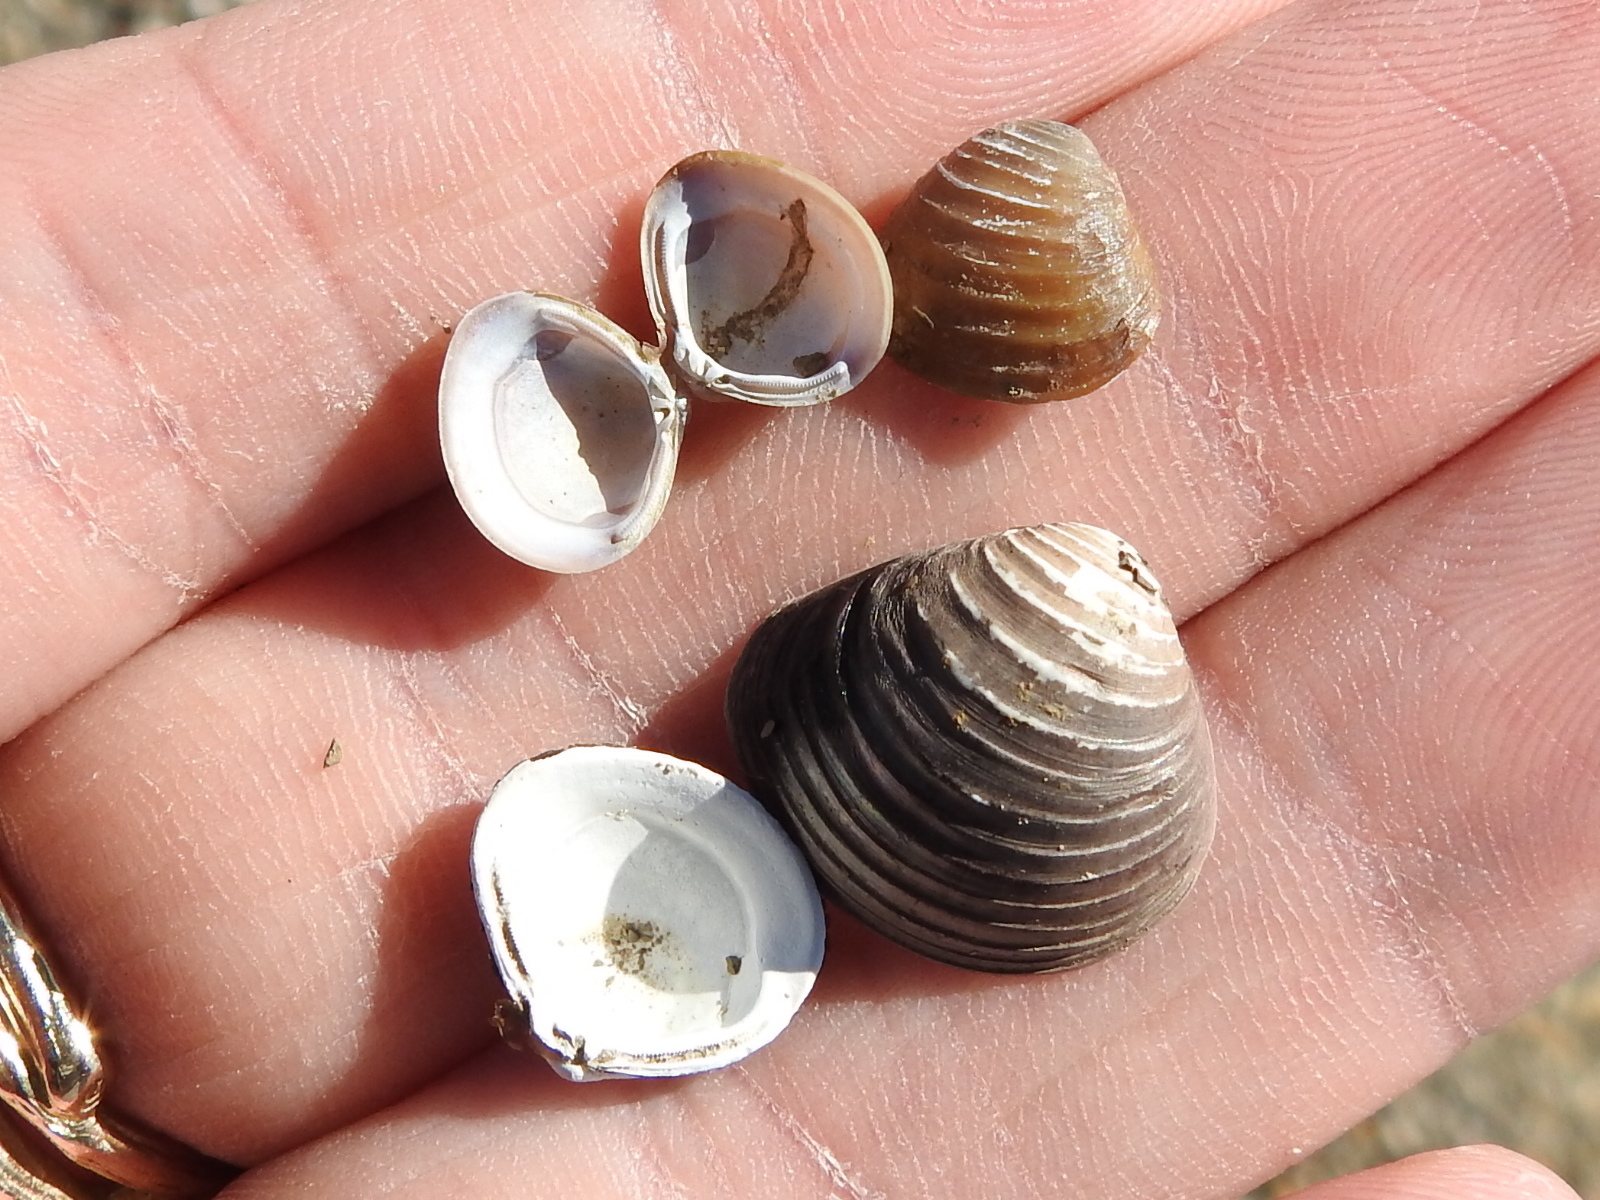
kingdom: Animalia
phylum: Mollusca
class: Bivalvia
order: Venerida
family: Cyrenidae
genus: Corbicula
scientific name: Corbicula fluminea
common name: Asian clam
